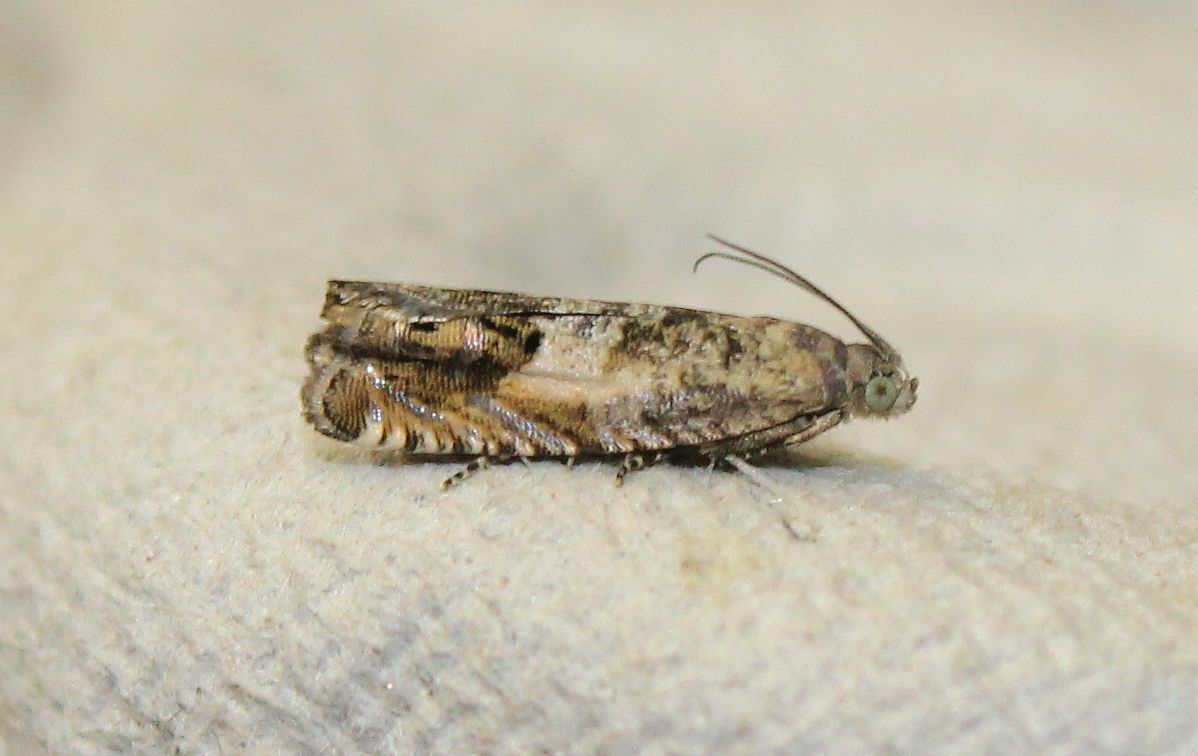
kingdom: Animalia
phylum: Arthropoda
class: Insecta
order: Lepidoptera
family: Tortricidae
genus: Cydia
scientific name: Cydia succedana
